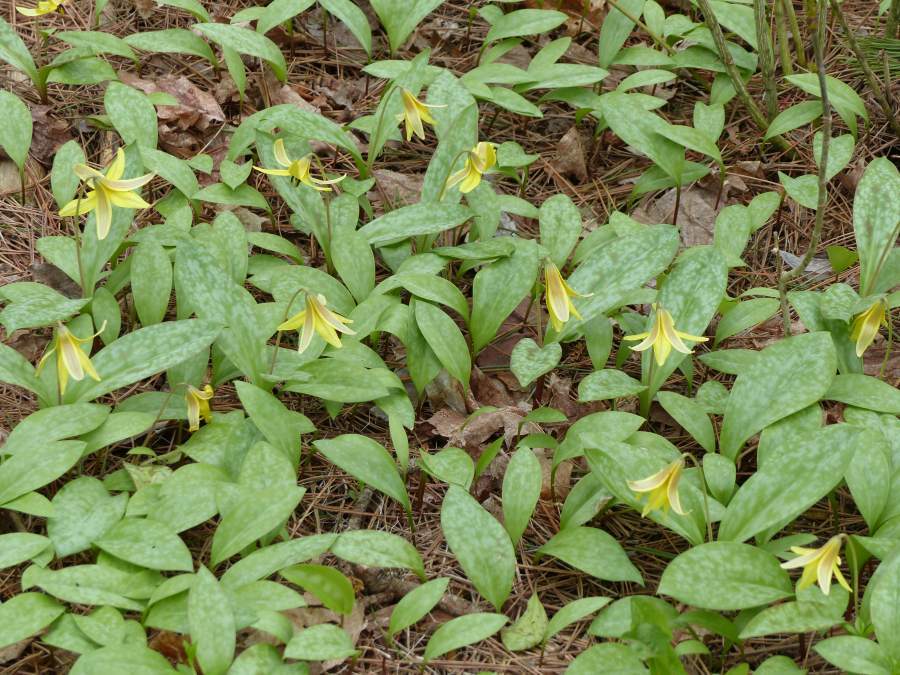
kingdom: Plantae
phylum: Tracheophyta
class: Liliopsida
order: Liliales
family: Liliaceae
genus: Erythronium
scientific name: Erythronium americanum
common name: Yellow adder's-tongue
